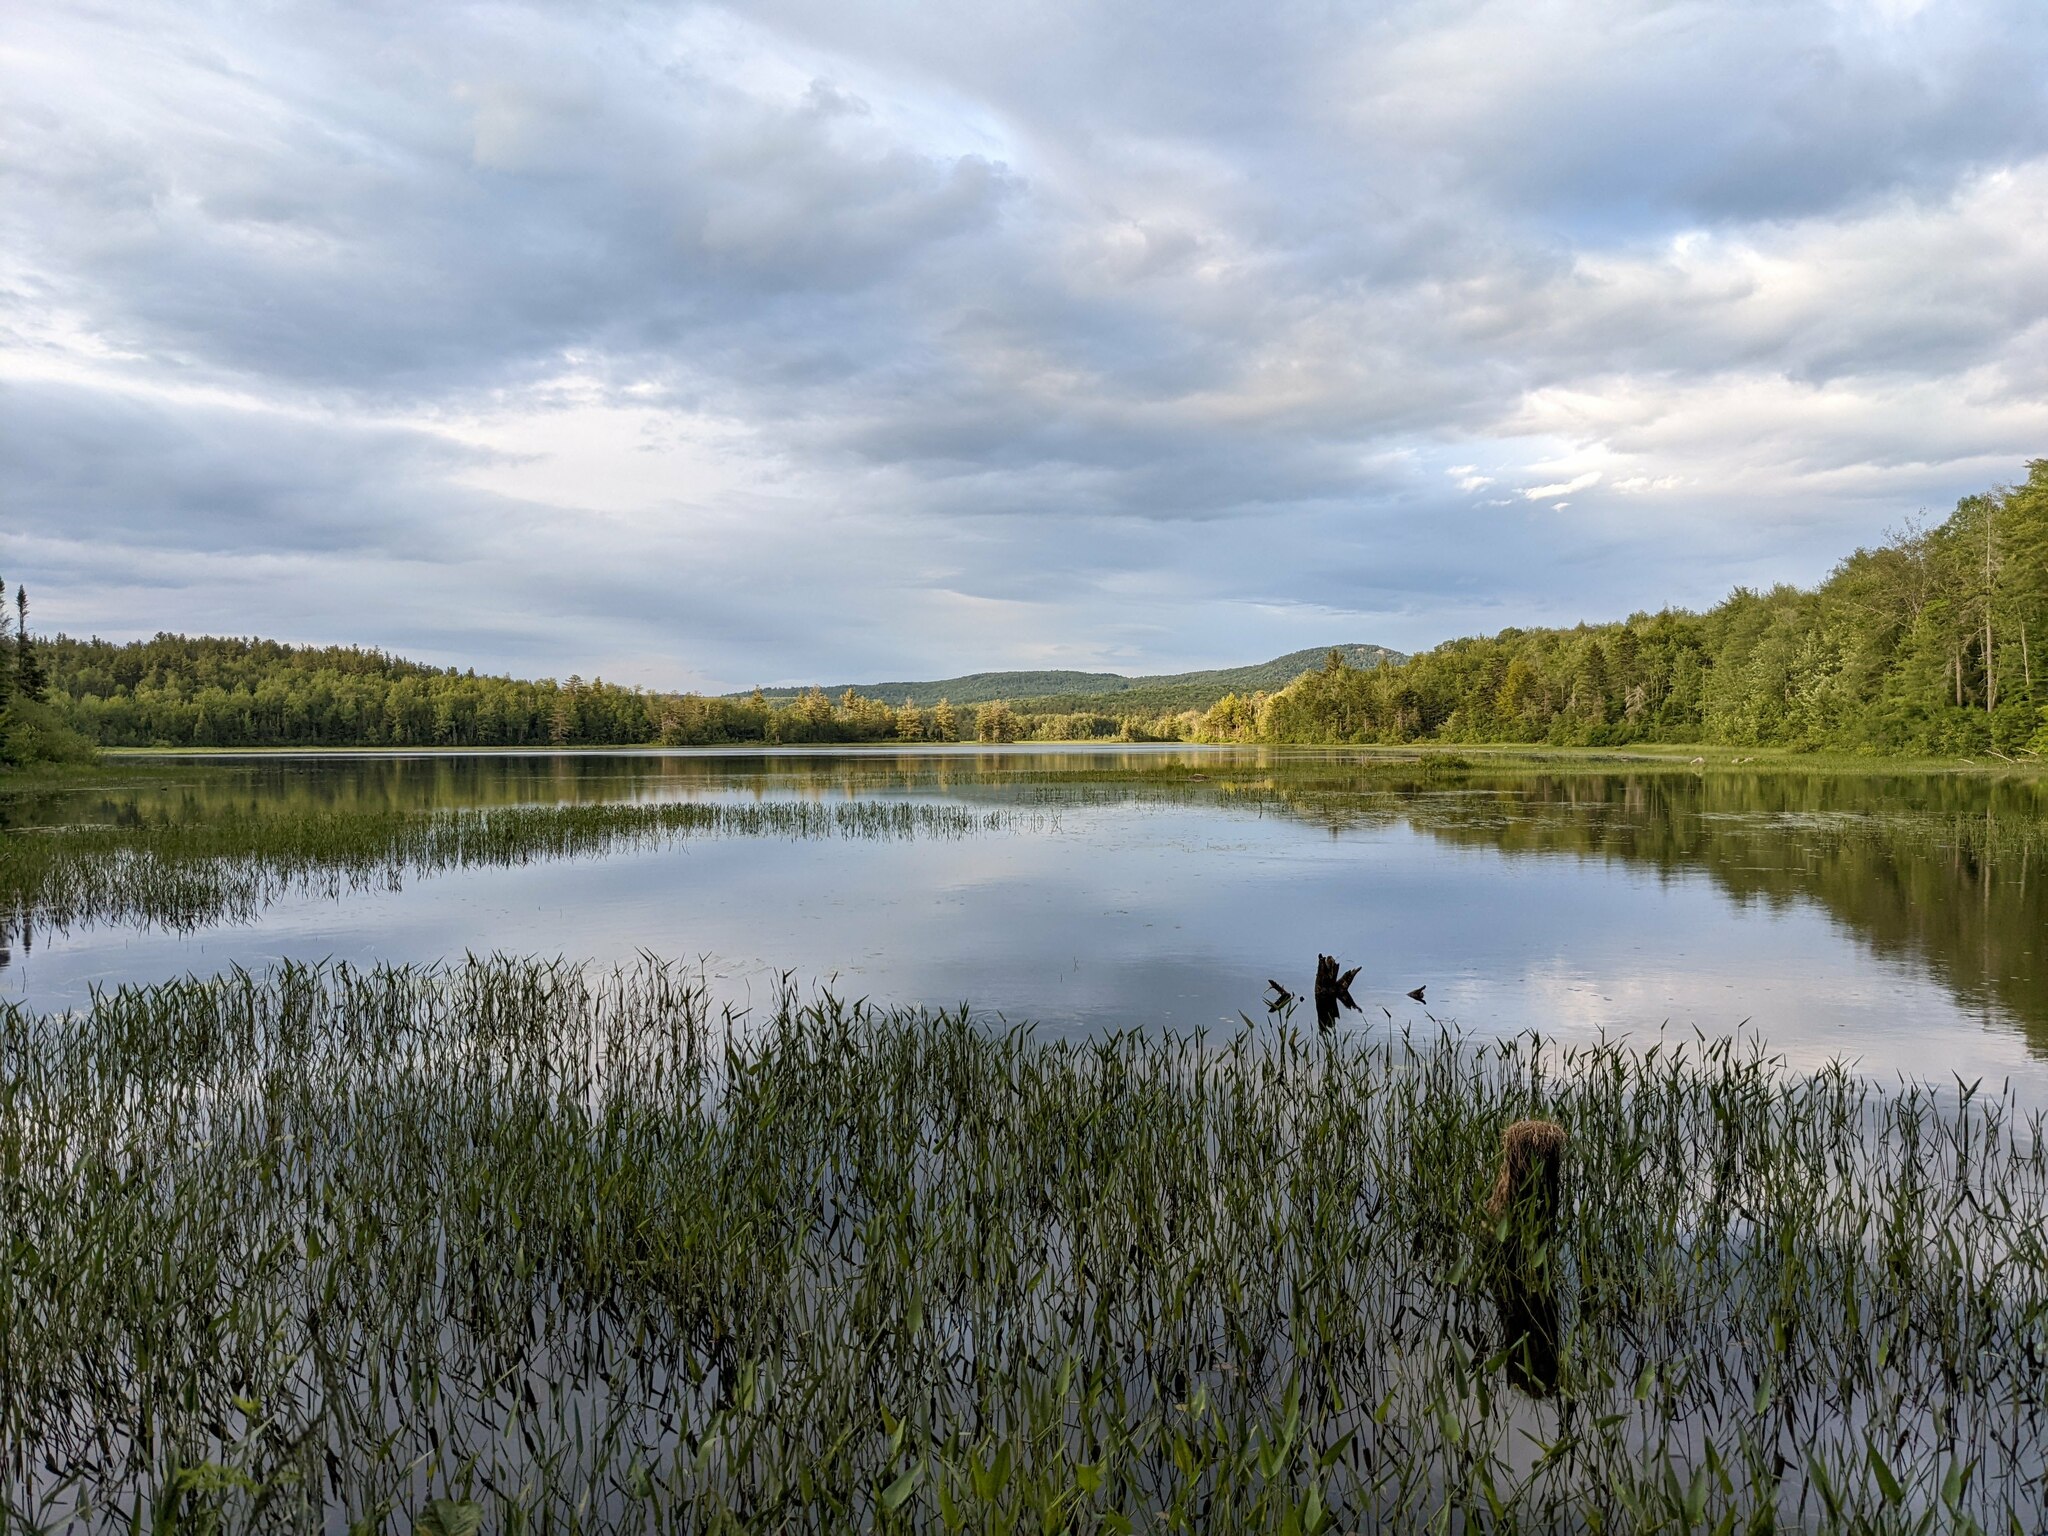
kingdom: Plantae
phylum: Tracheophyta
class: Liliopsida
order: Commelinales
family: Pontederiaceae
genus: Pontederia
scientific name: Pontederia cordata
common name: Pickerelweed
